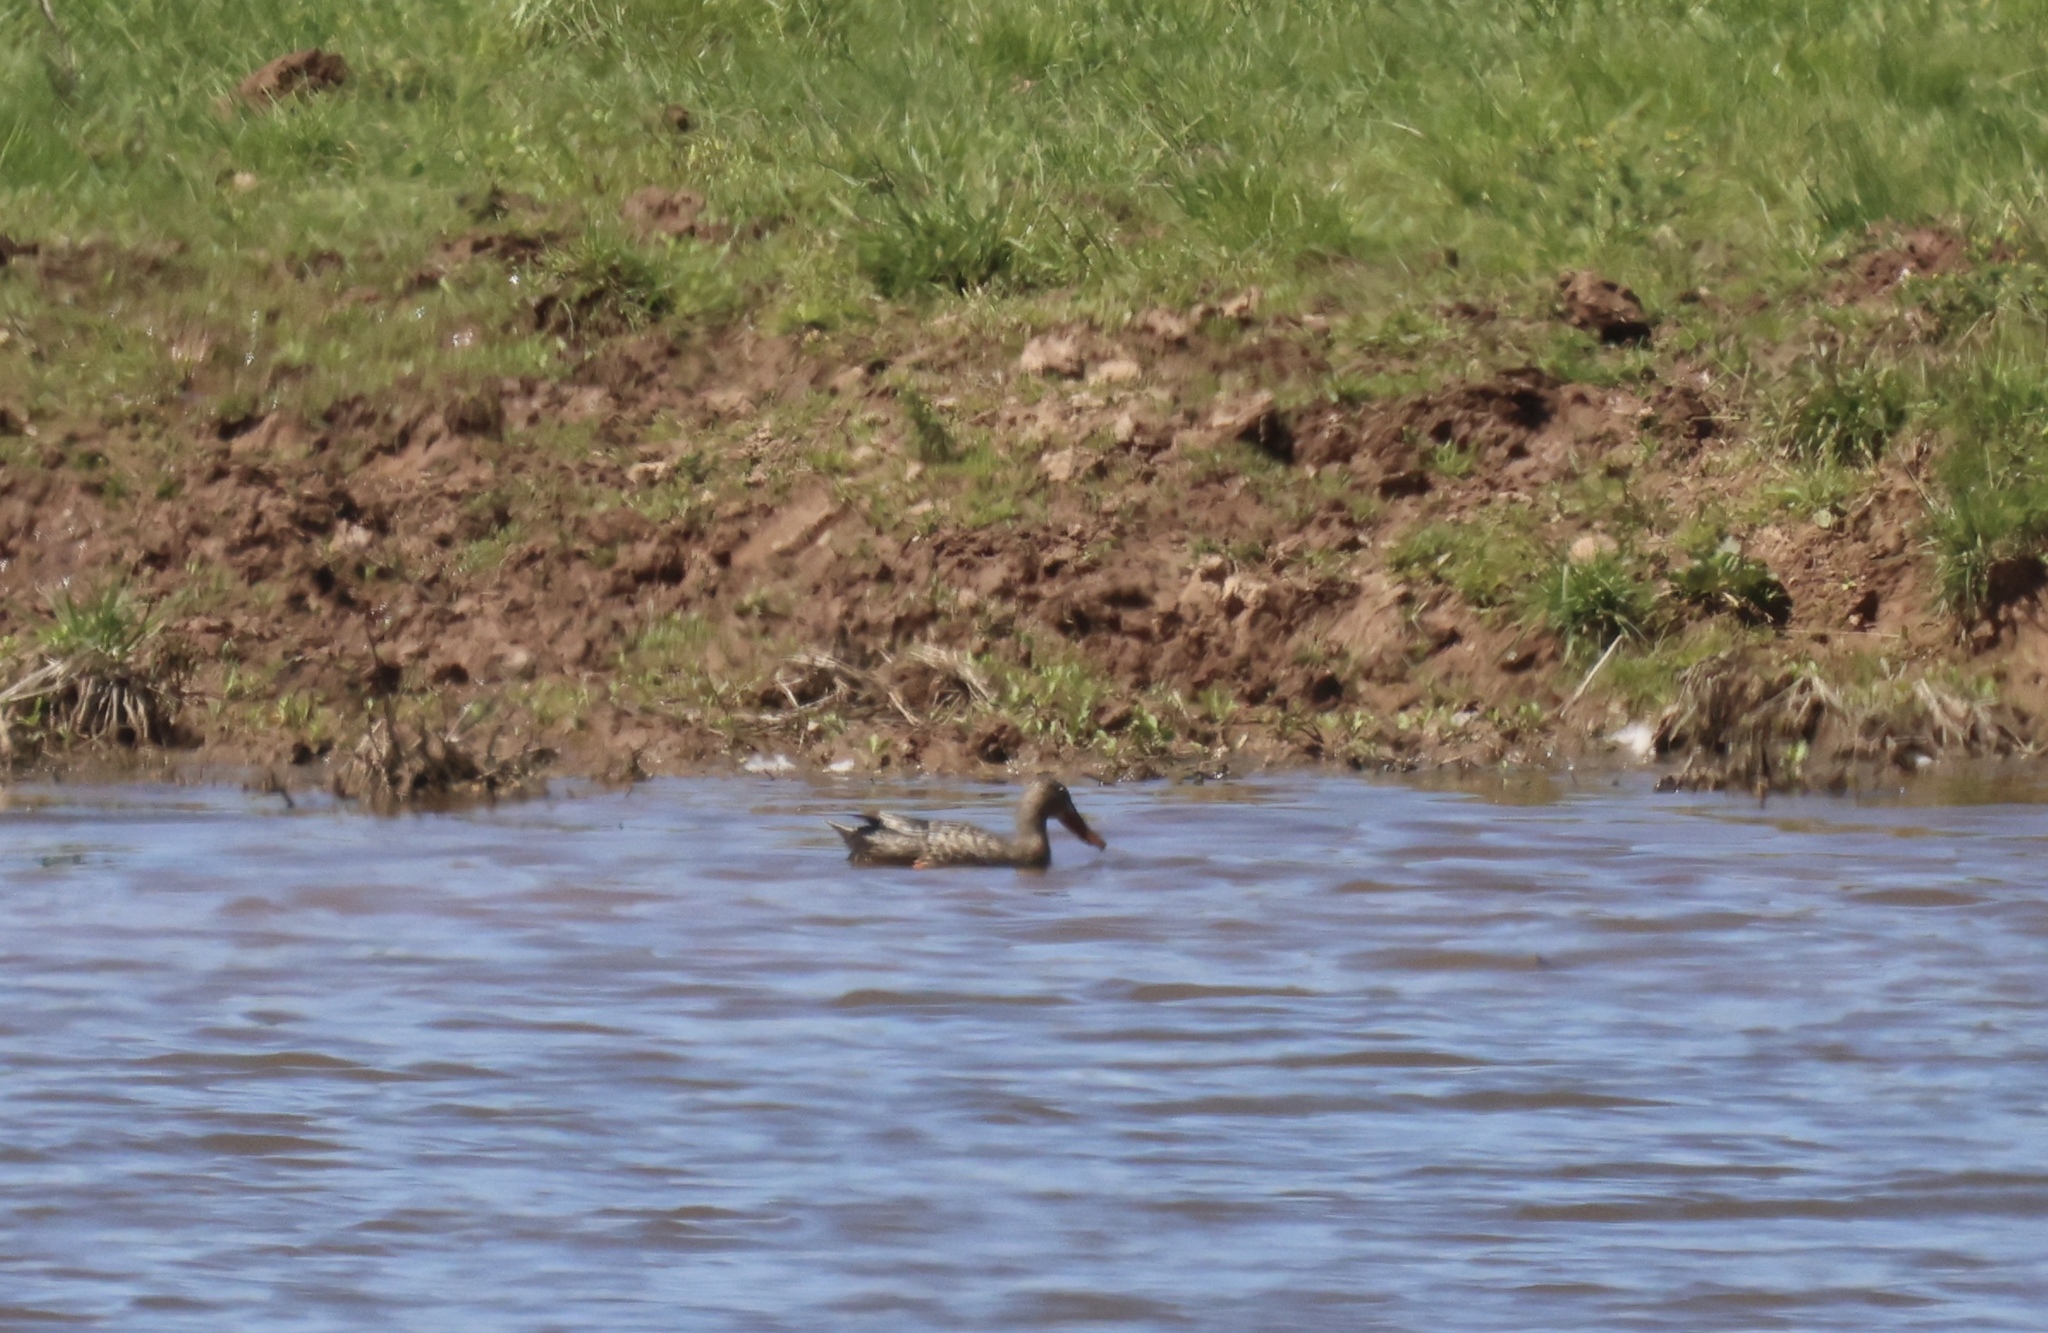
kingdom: Animalia
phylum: Chordata
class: Aves
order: Anseriformes
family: Anatidae
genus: Spatula
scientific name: Spatula clypeata
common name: Northern shoveler
